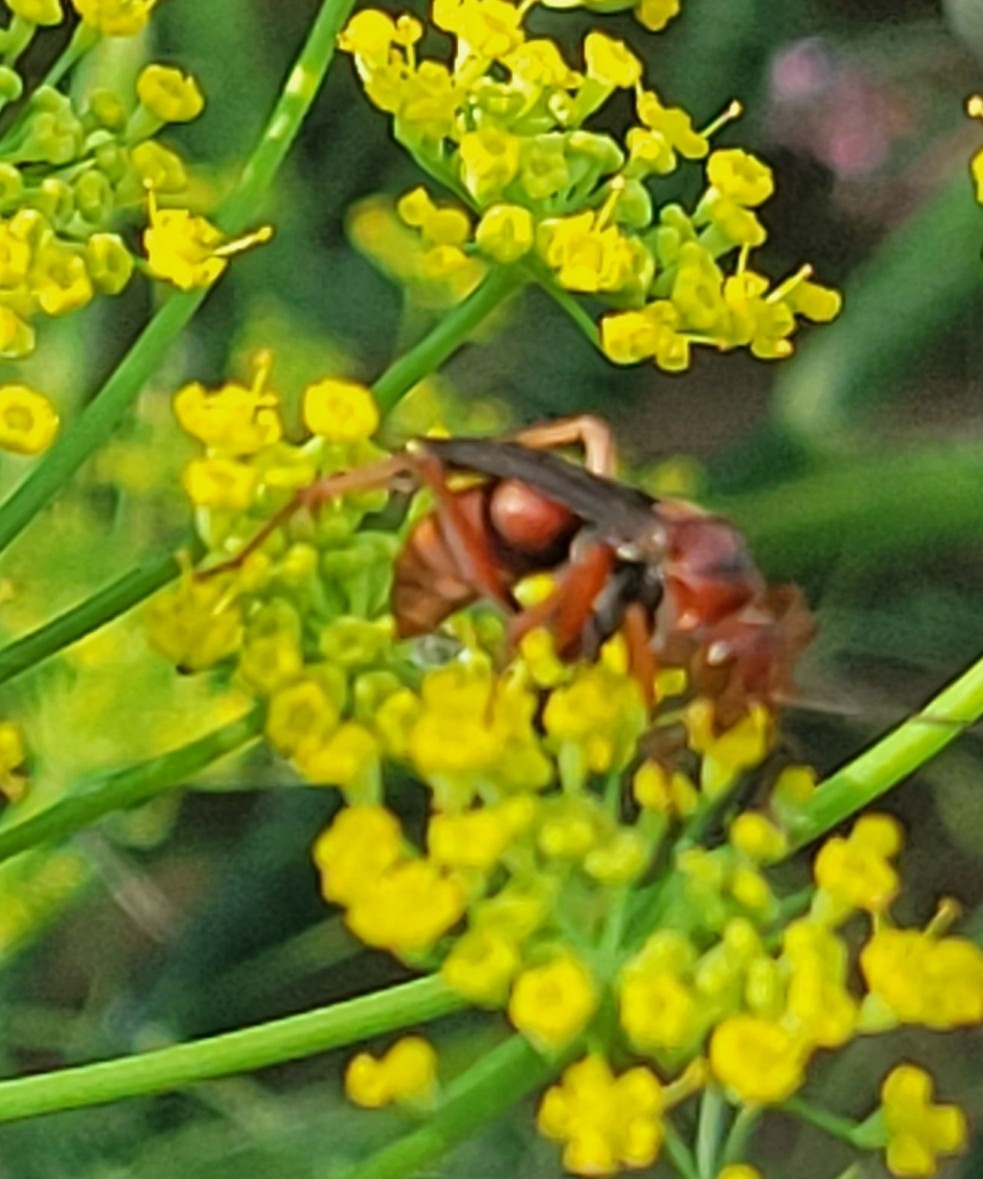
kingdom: Animalia
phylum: Arthropoda
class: Insecta
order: Hymenoptera
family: Pompilidae
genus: Tachypompilus
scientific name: Tachypompilus ferrugineus
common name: Rusty spider wasp
